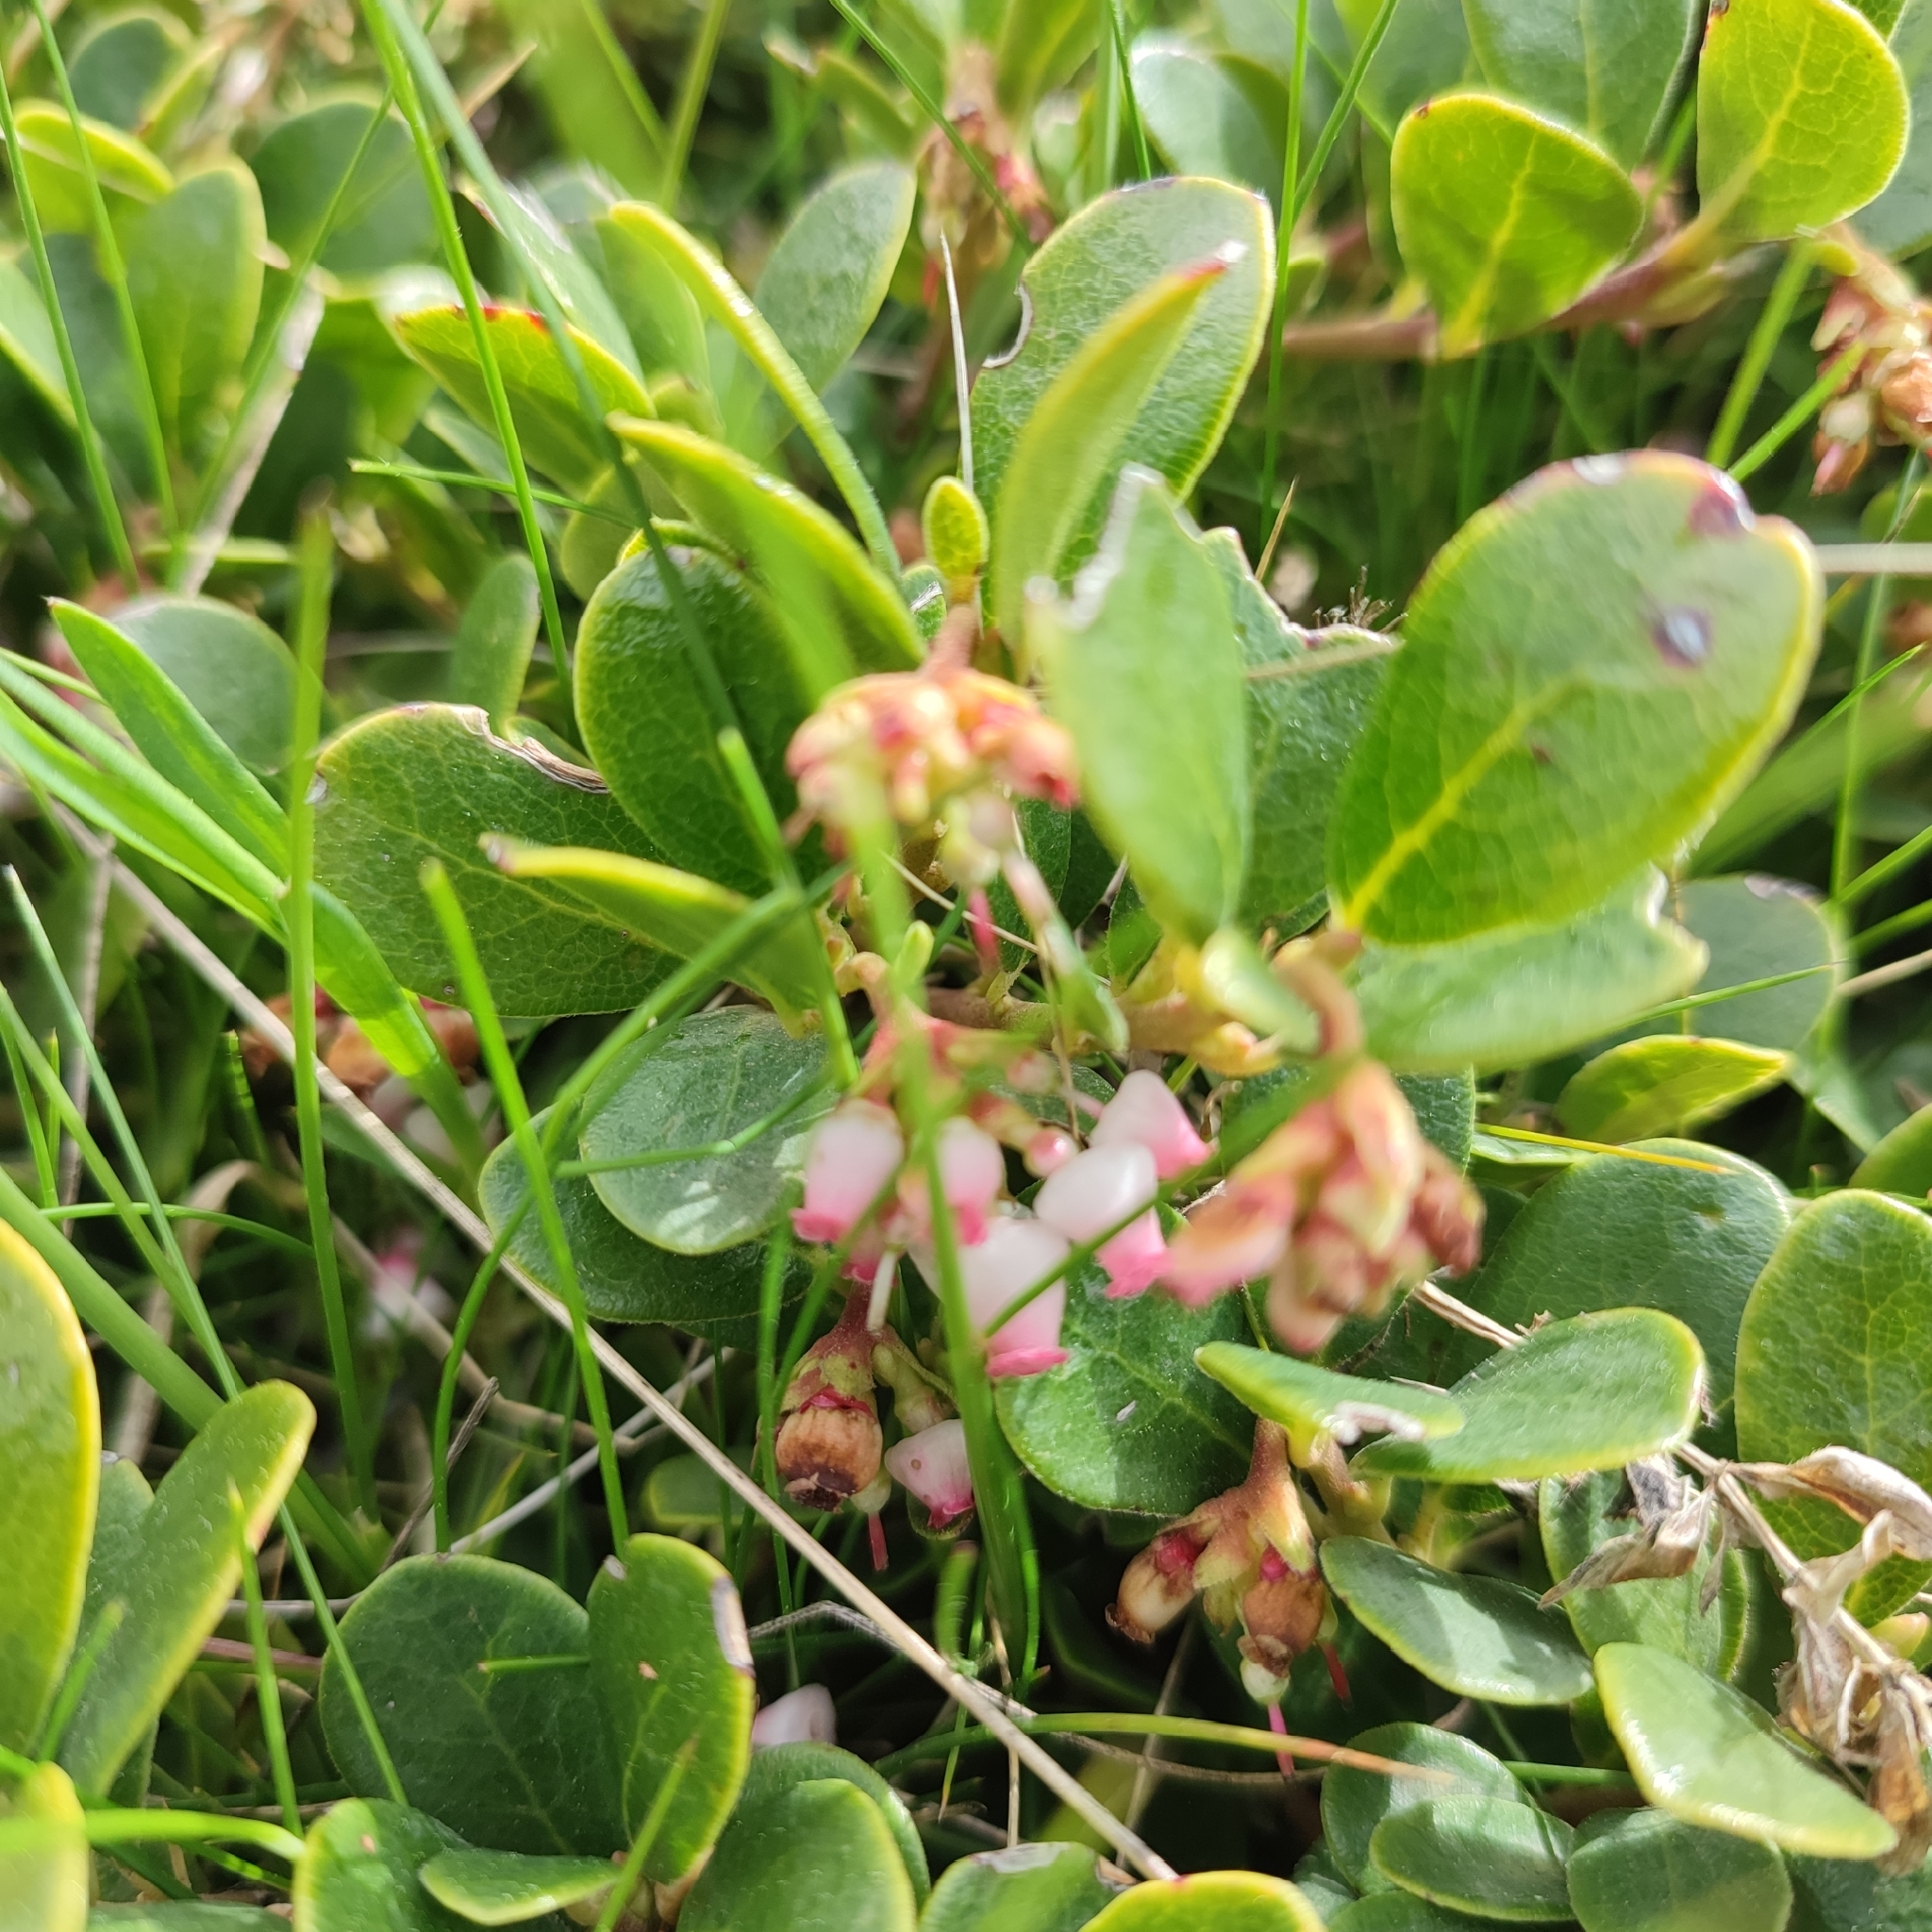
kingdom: Plantae
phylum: Tracheophyta
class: Magnoliopsida
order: Ericales
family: Ericaceae
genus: Arctostaphylos
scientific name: Arctostaphylos uva-ursi
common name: Bearberry
